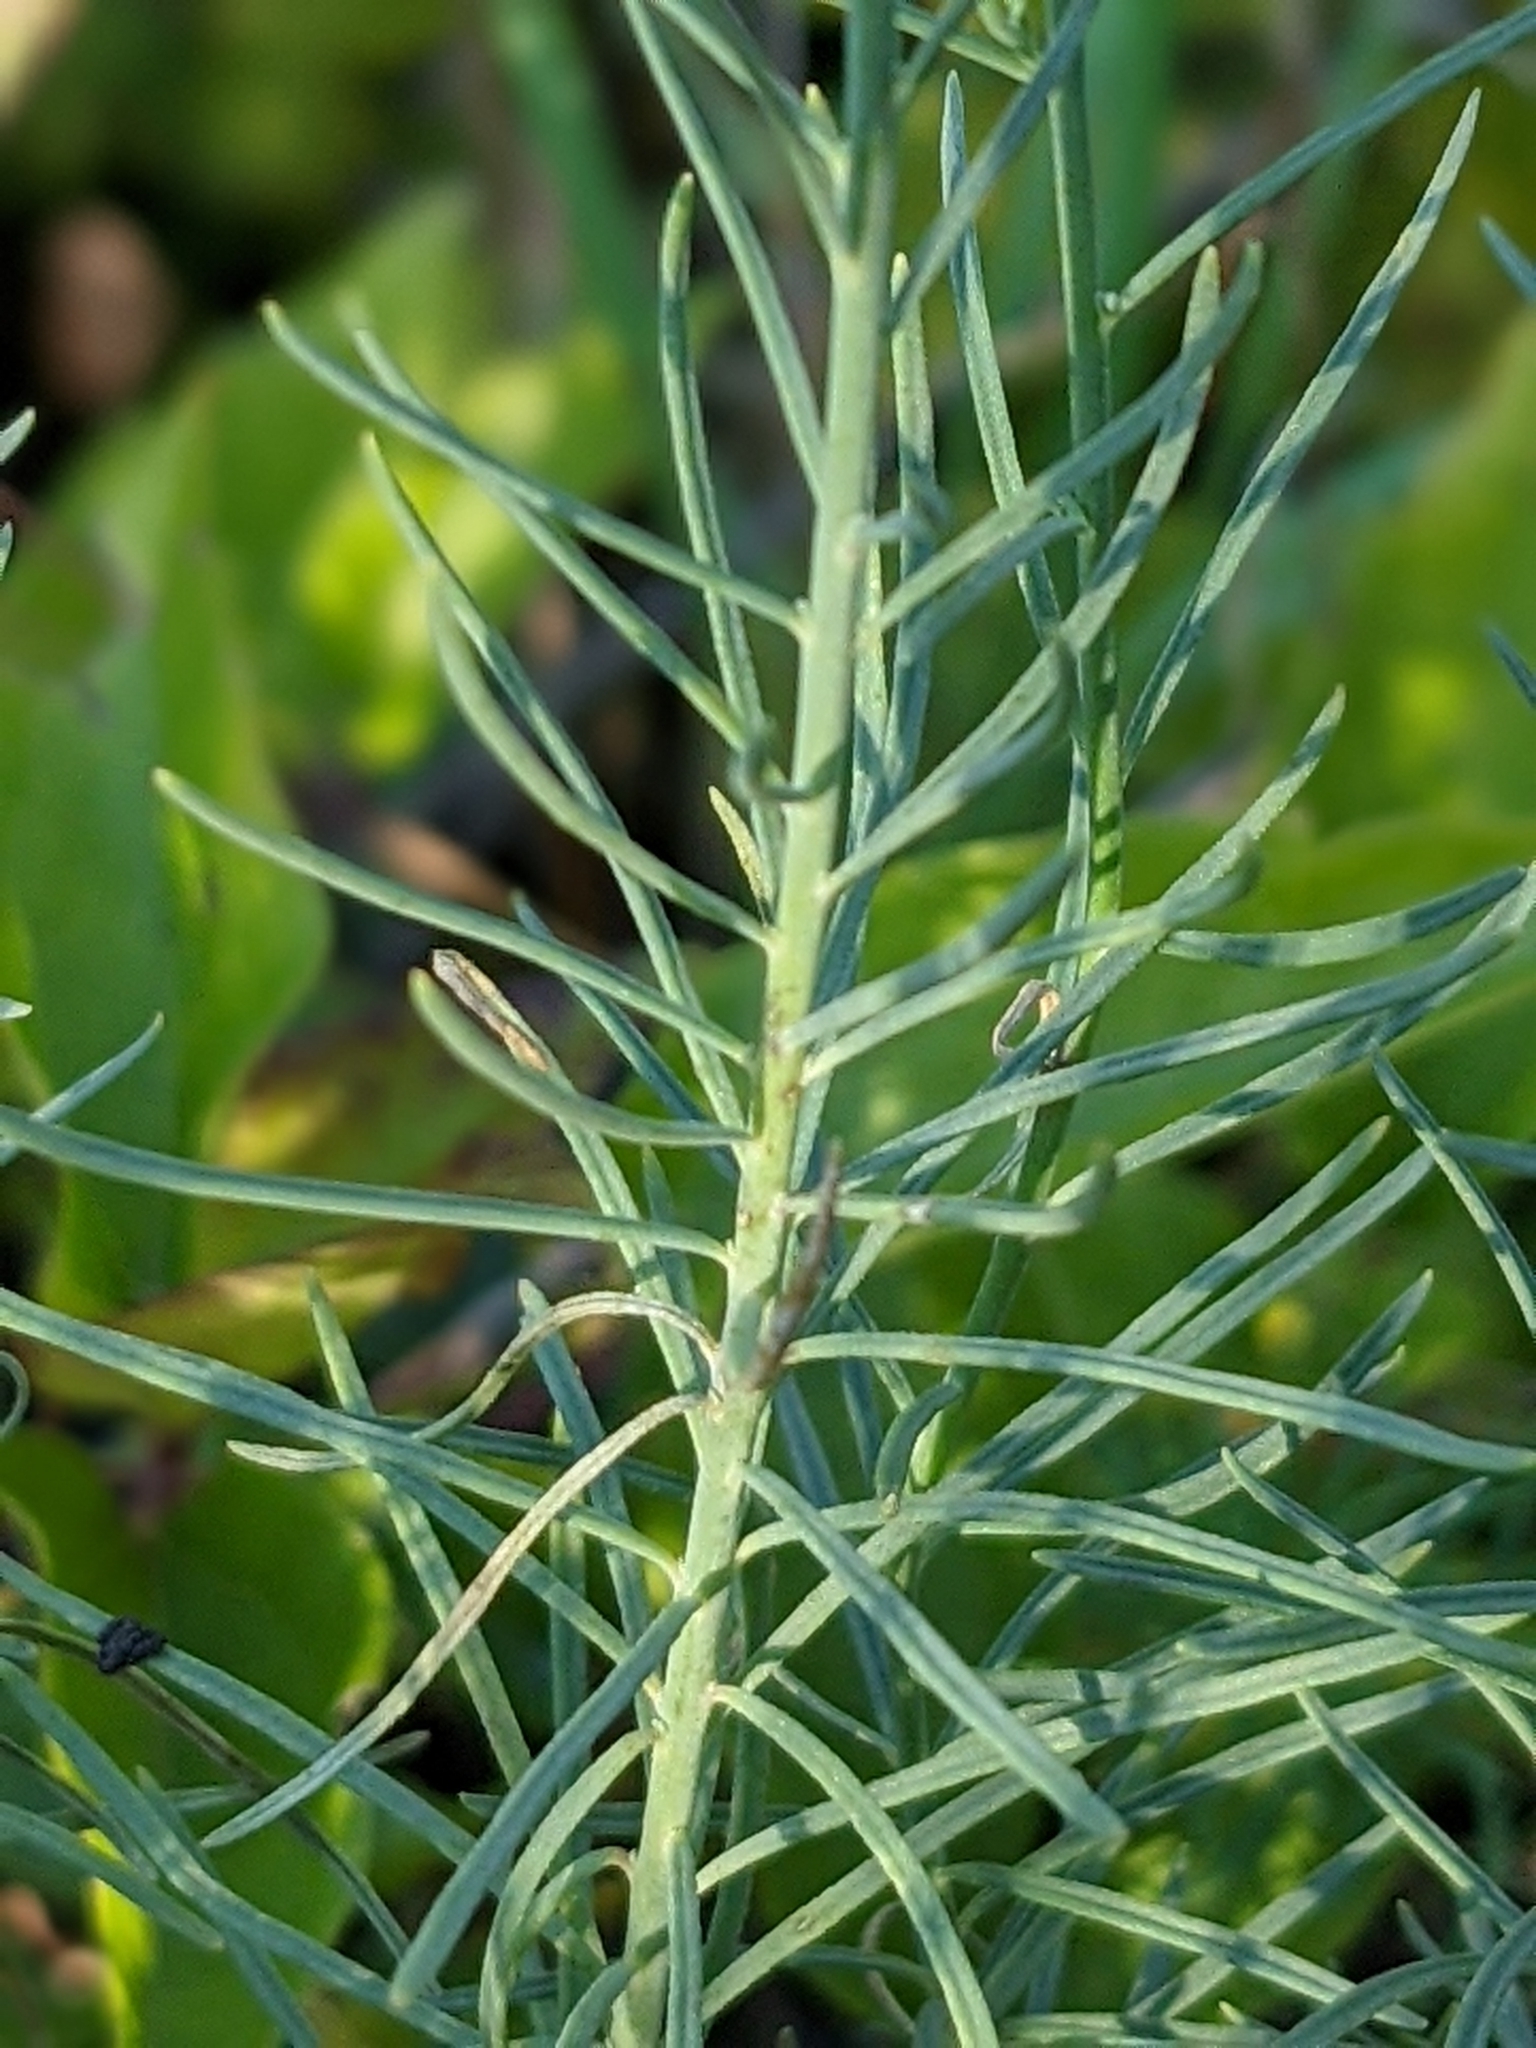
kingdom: Plantae
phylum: Tracheophyta
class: Magnoliopsida
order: Lamiales
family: Plantaginaceae
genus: Linaria
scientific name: Linaria repens
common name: Pale toadflax
